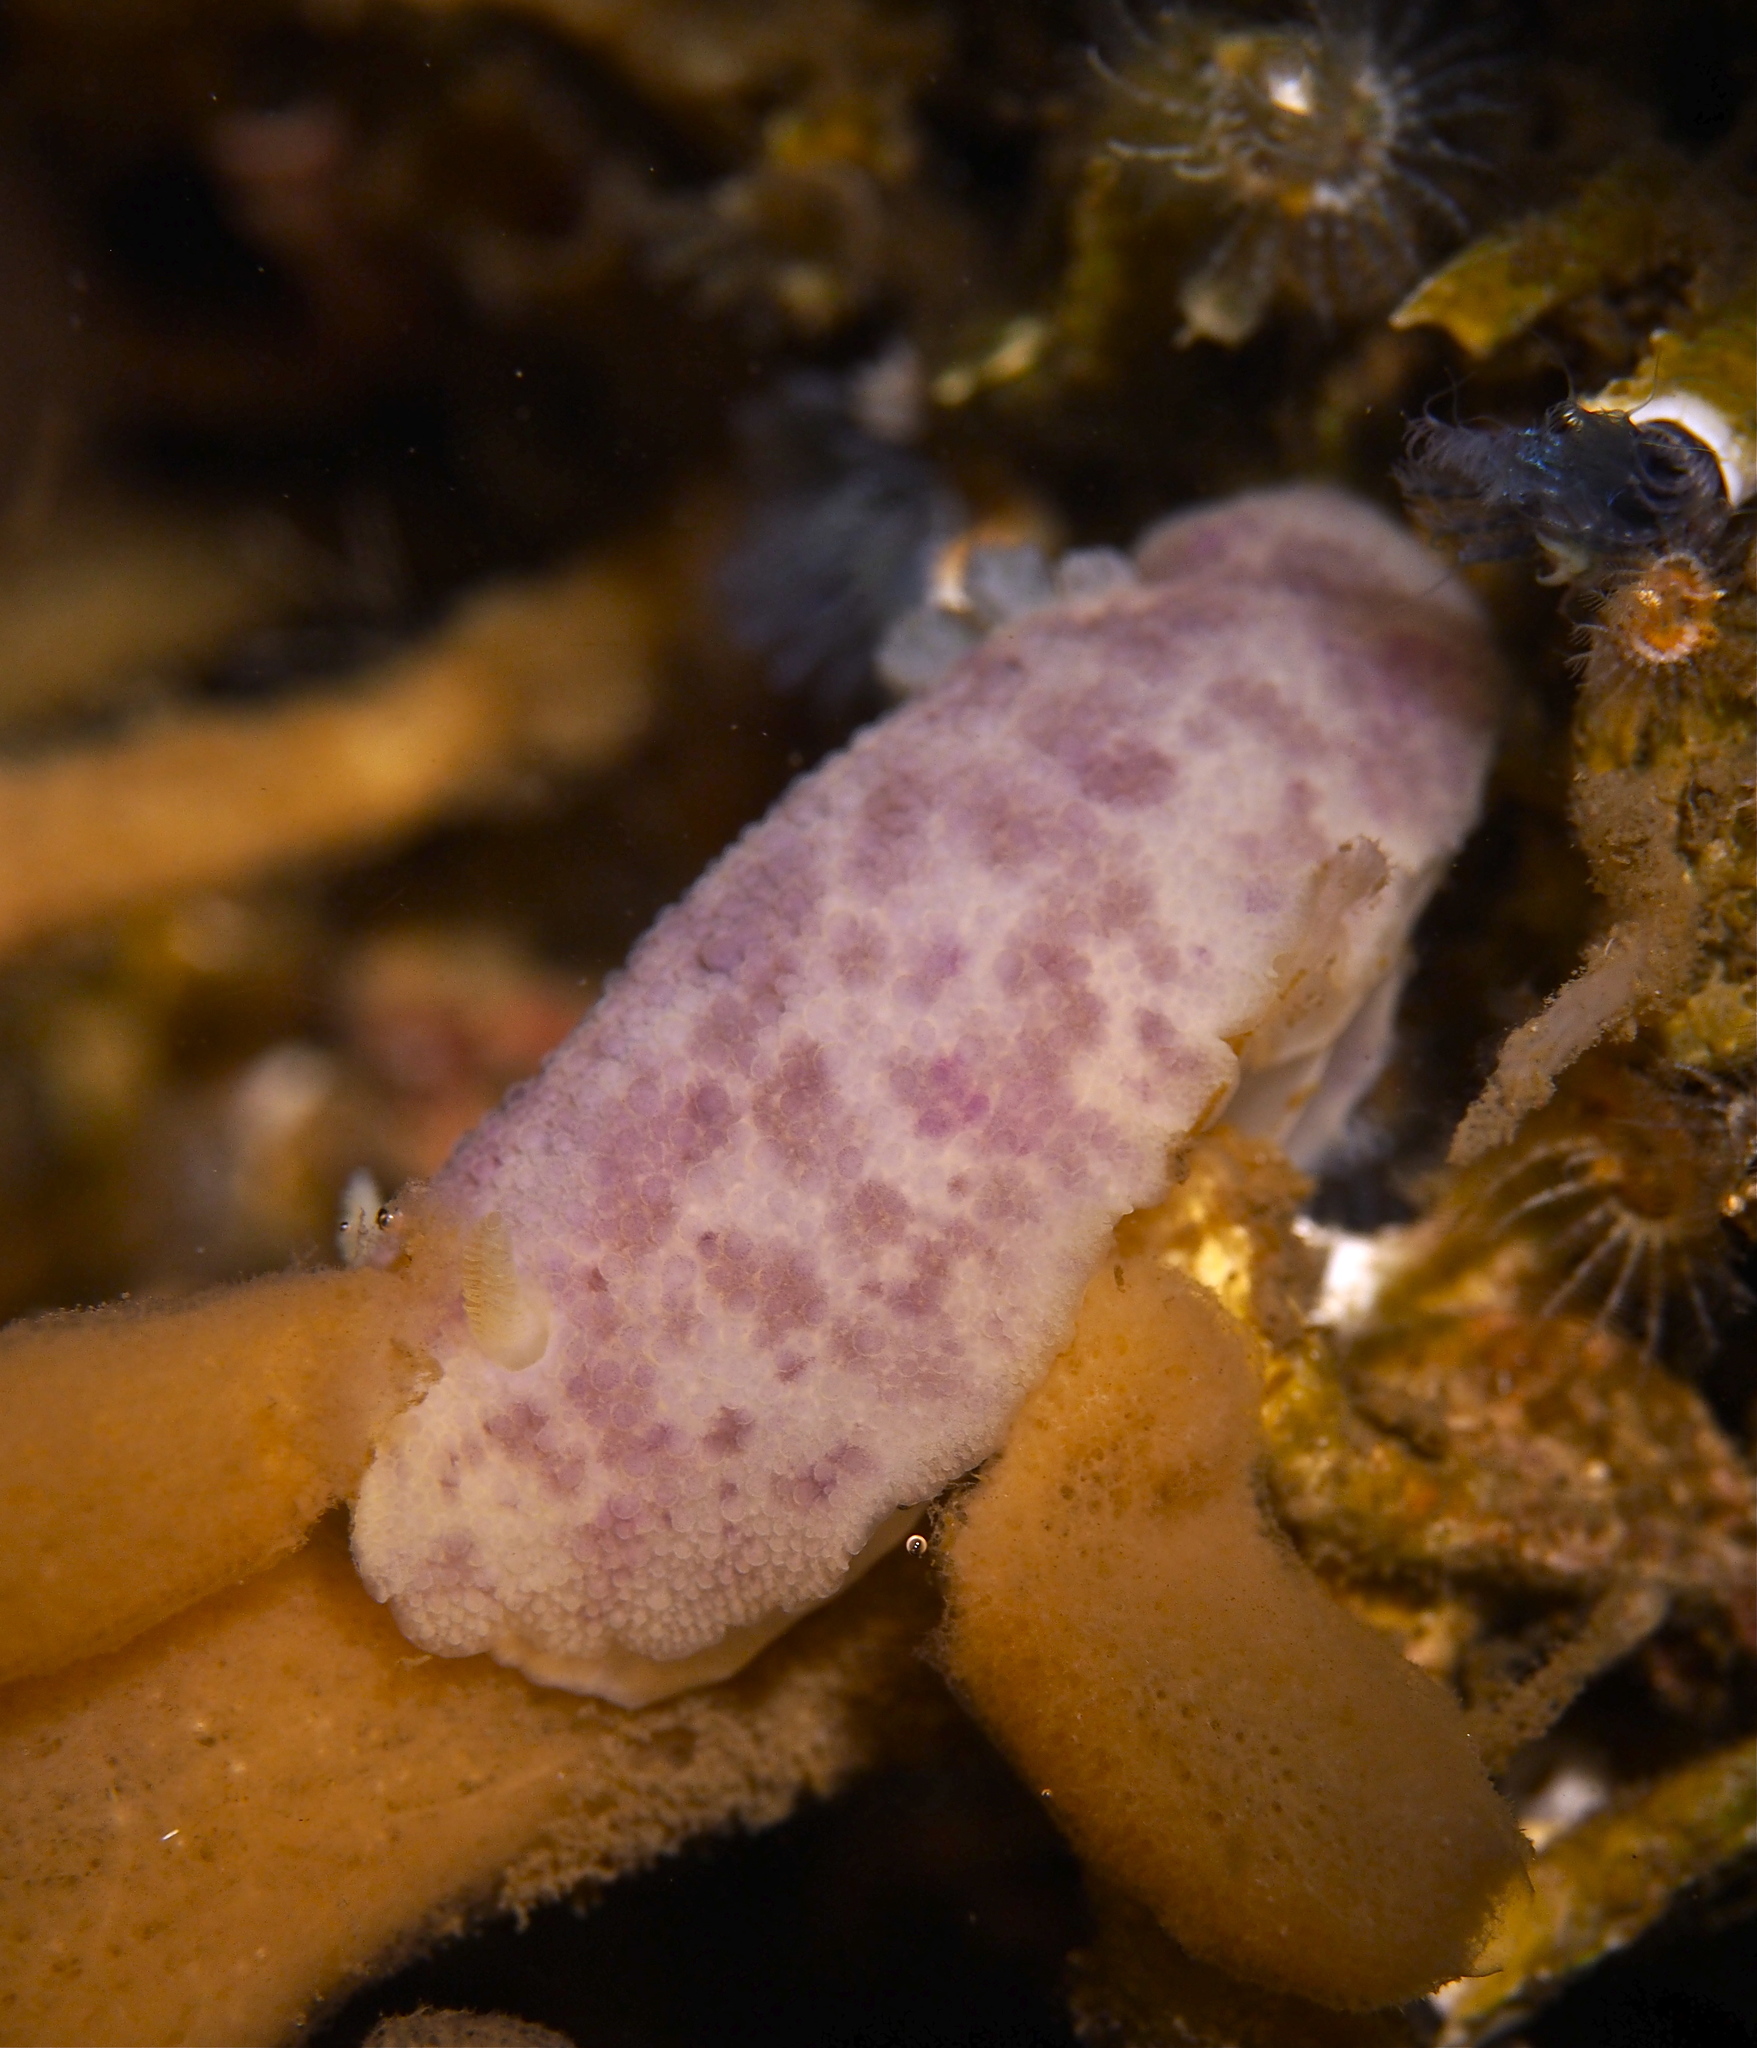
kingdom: Animalia
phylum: Mollusca
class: Gastropoda
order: Nudibranchia
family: Dorididae
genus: Doris
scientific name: Doris pseudoargus
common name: Sea lemon
